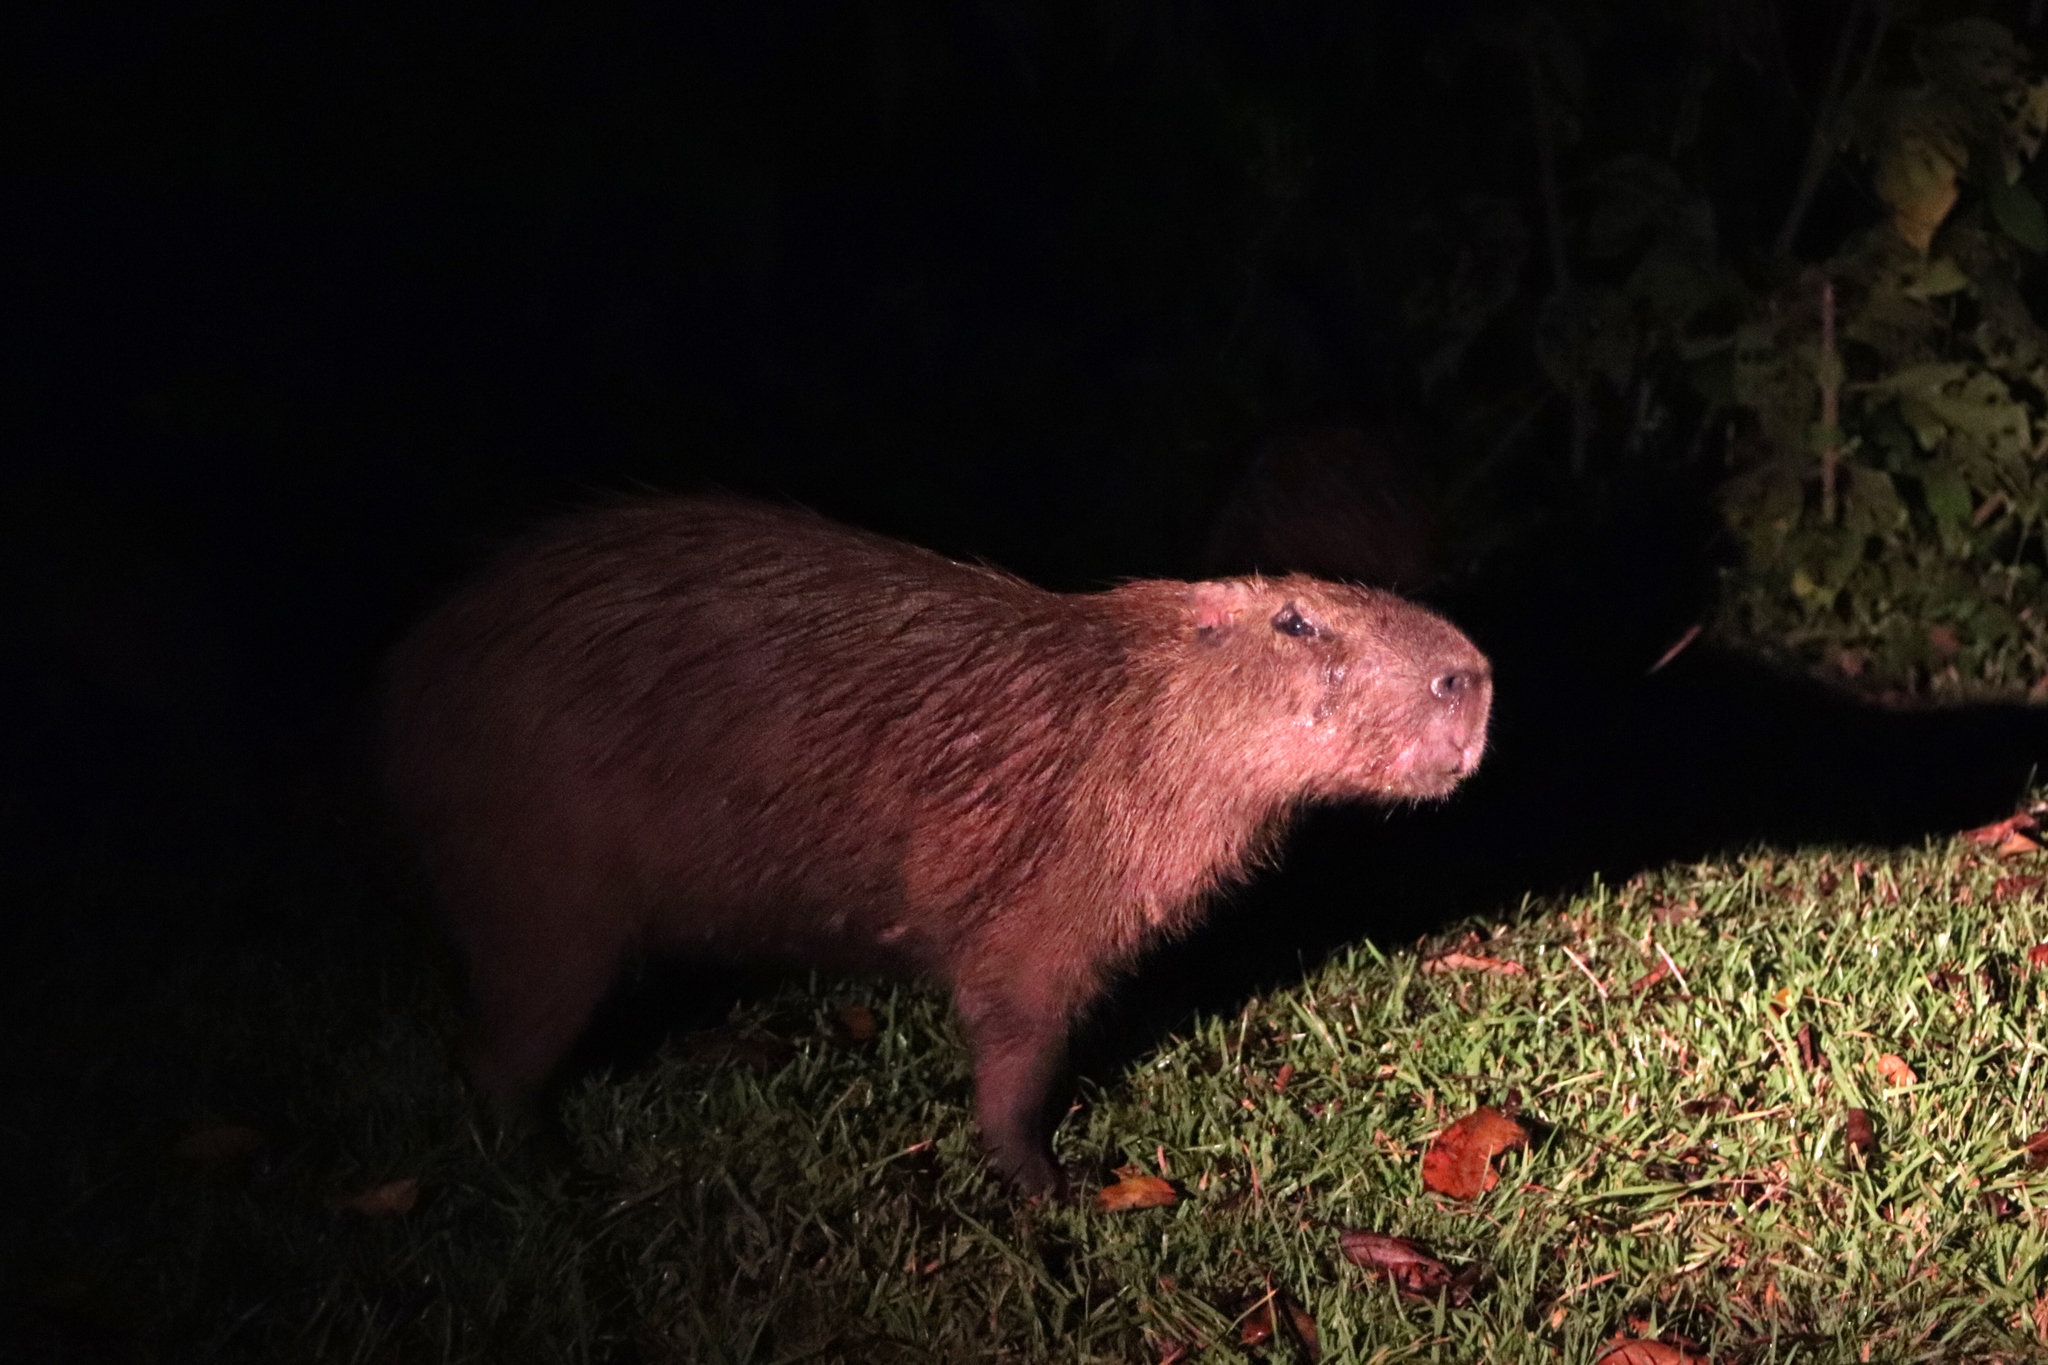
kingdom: Animalia
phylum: Chordata
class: Mammalia
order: Rodentia
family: Caviidae
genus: Hydrochoerus
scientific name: Hydrochoerus isthmius
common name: Lesser capybara
